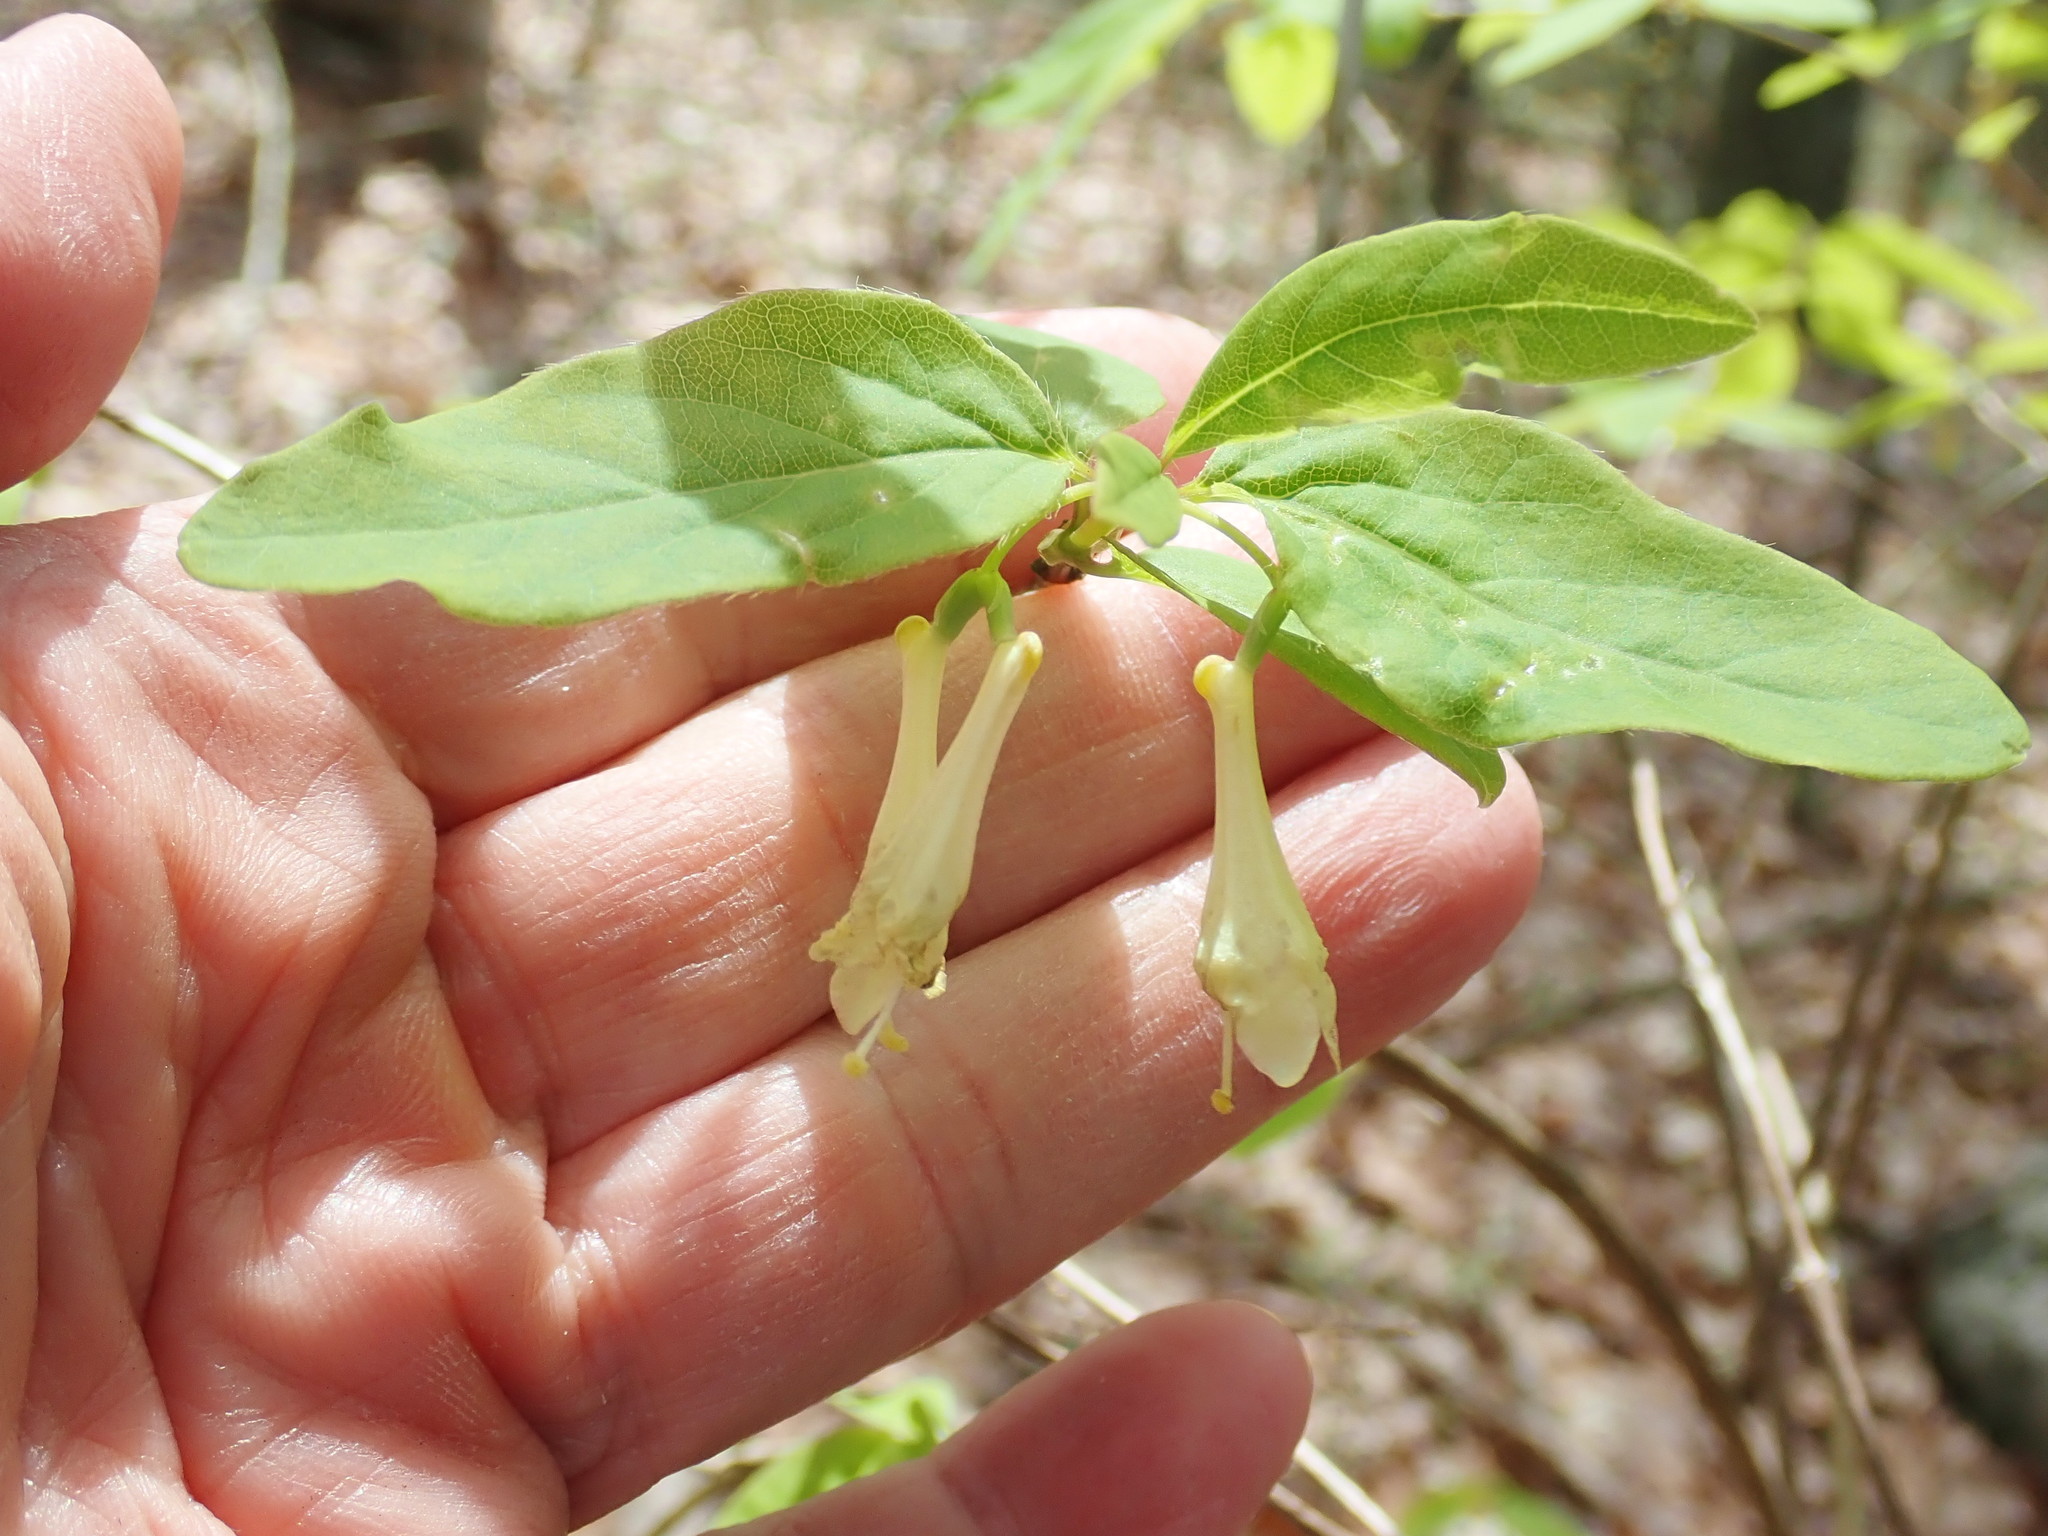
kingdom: Plantae
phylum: Tracheophyta
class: Magnoliopsida
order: Dipsacales
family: Caprifoliaceae
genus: Lonicera
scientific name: Lonicera canadensis
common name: American fly-honeysuckle
